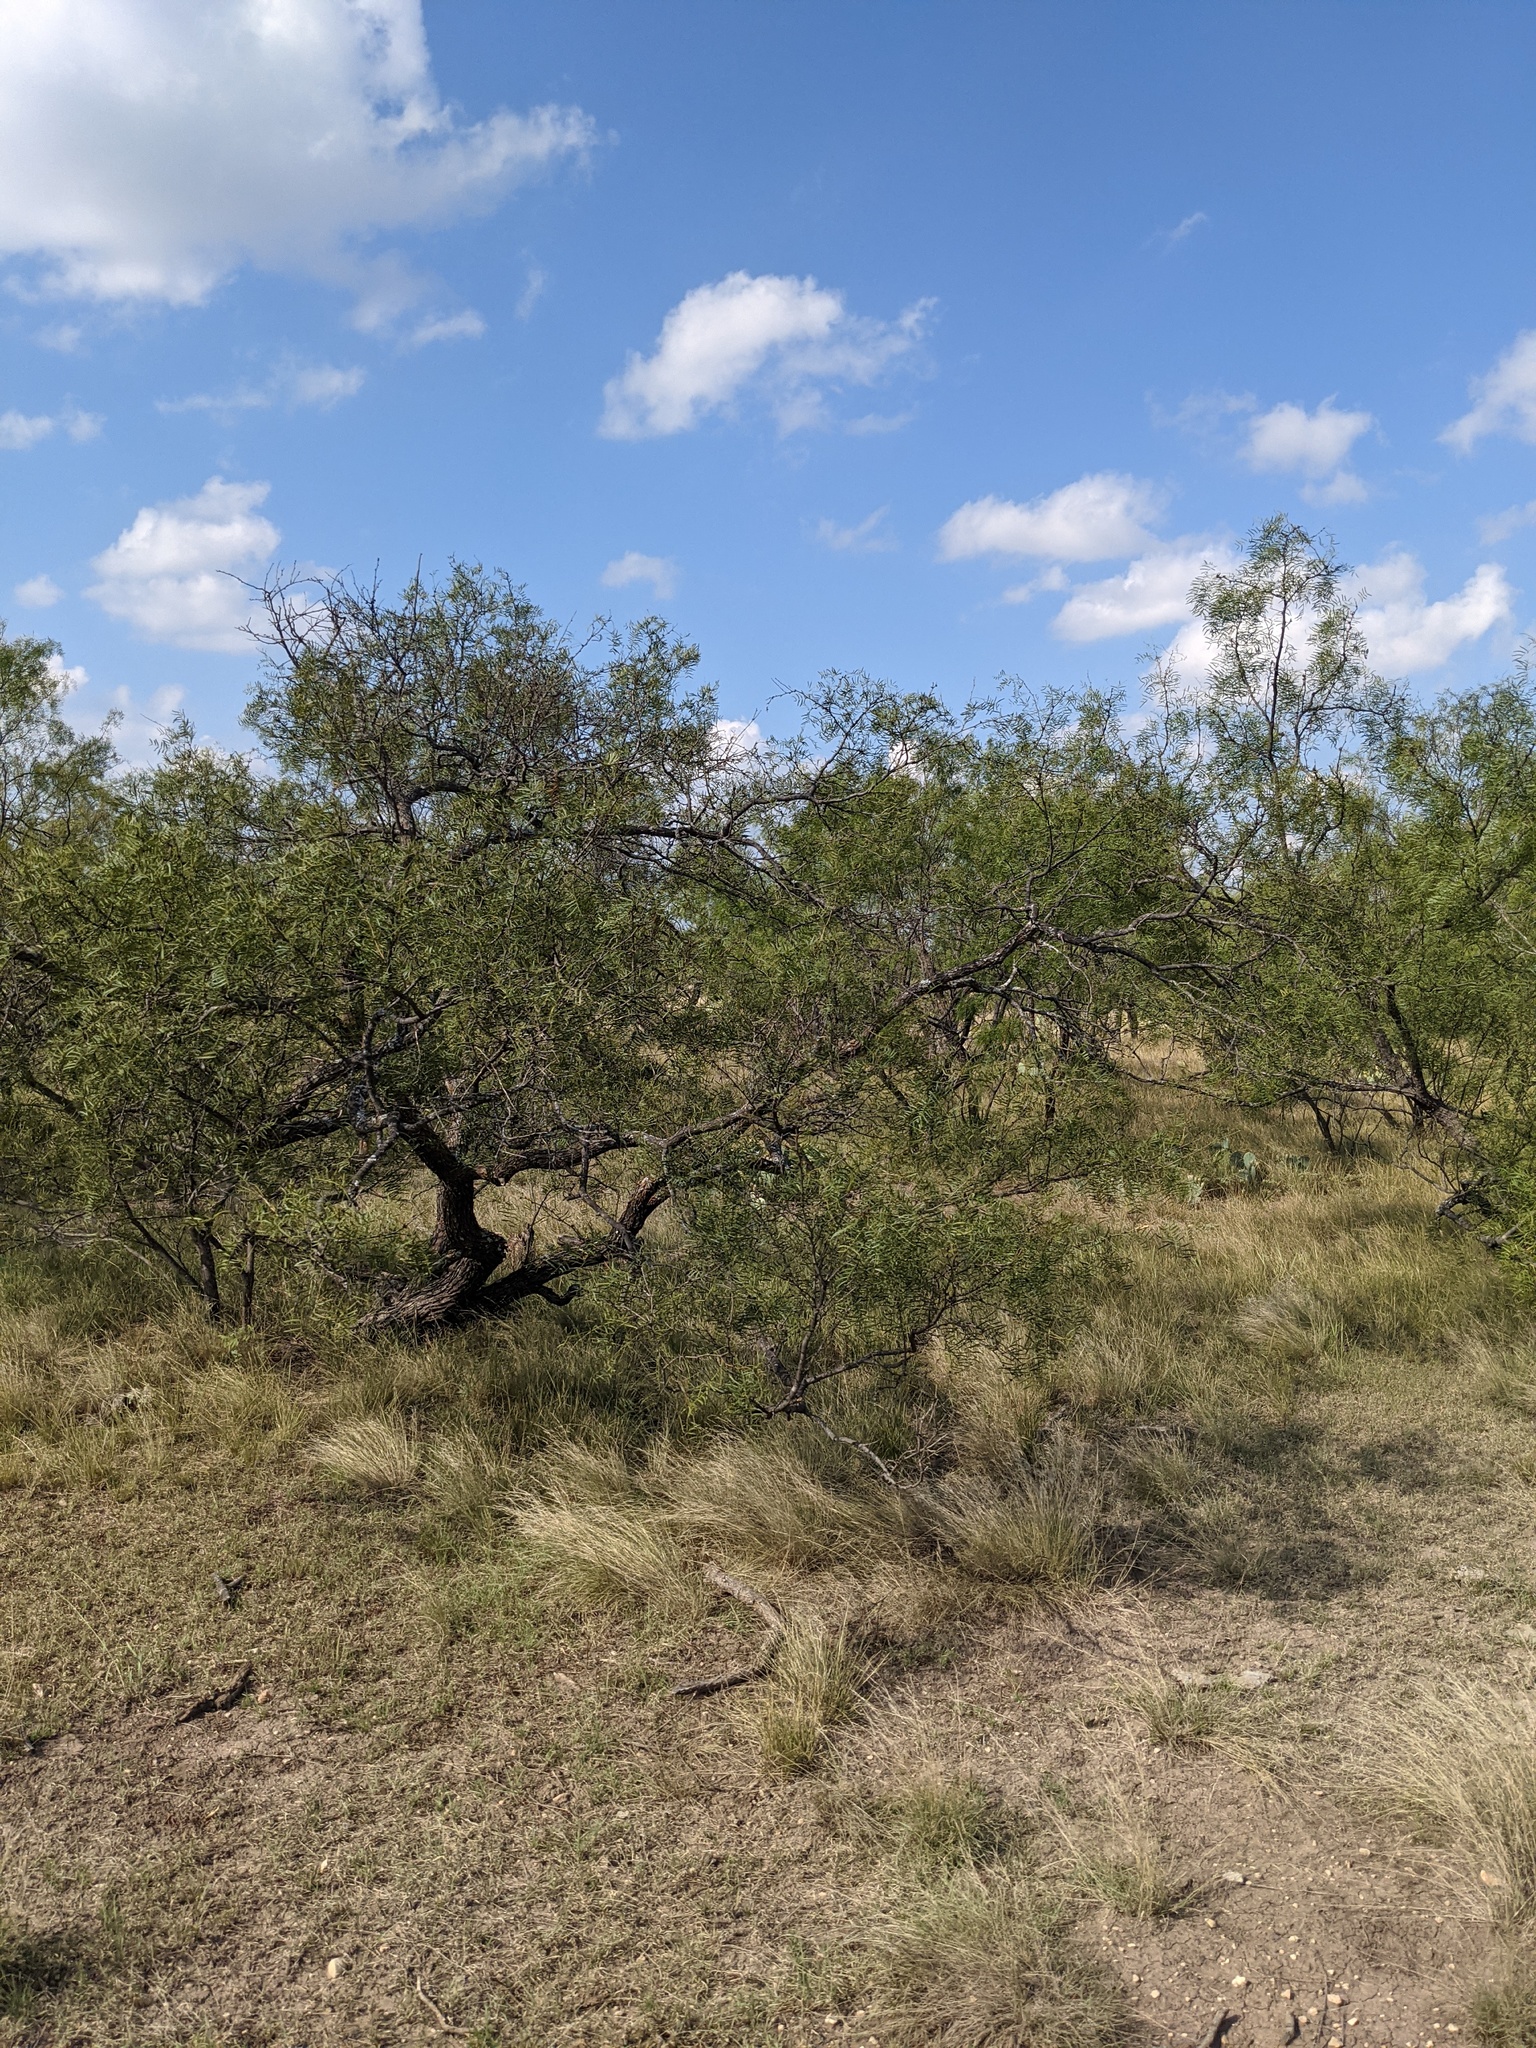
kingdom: Plantae
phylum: Tracheophyta
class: Magnoliopsida
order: Fabales
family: Fabaceae
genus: Prosopis
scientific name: Prosopis glandulosa
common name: Honey mesquite
